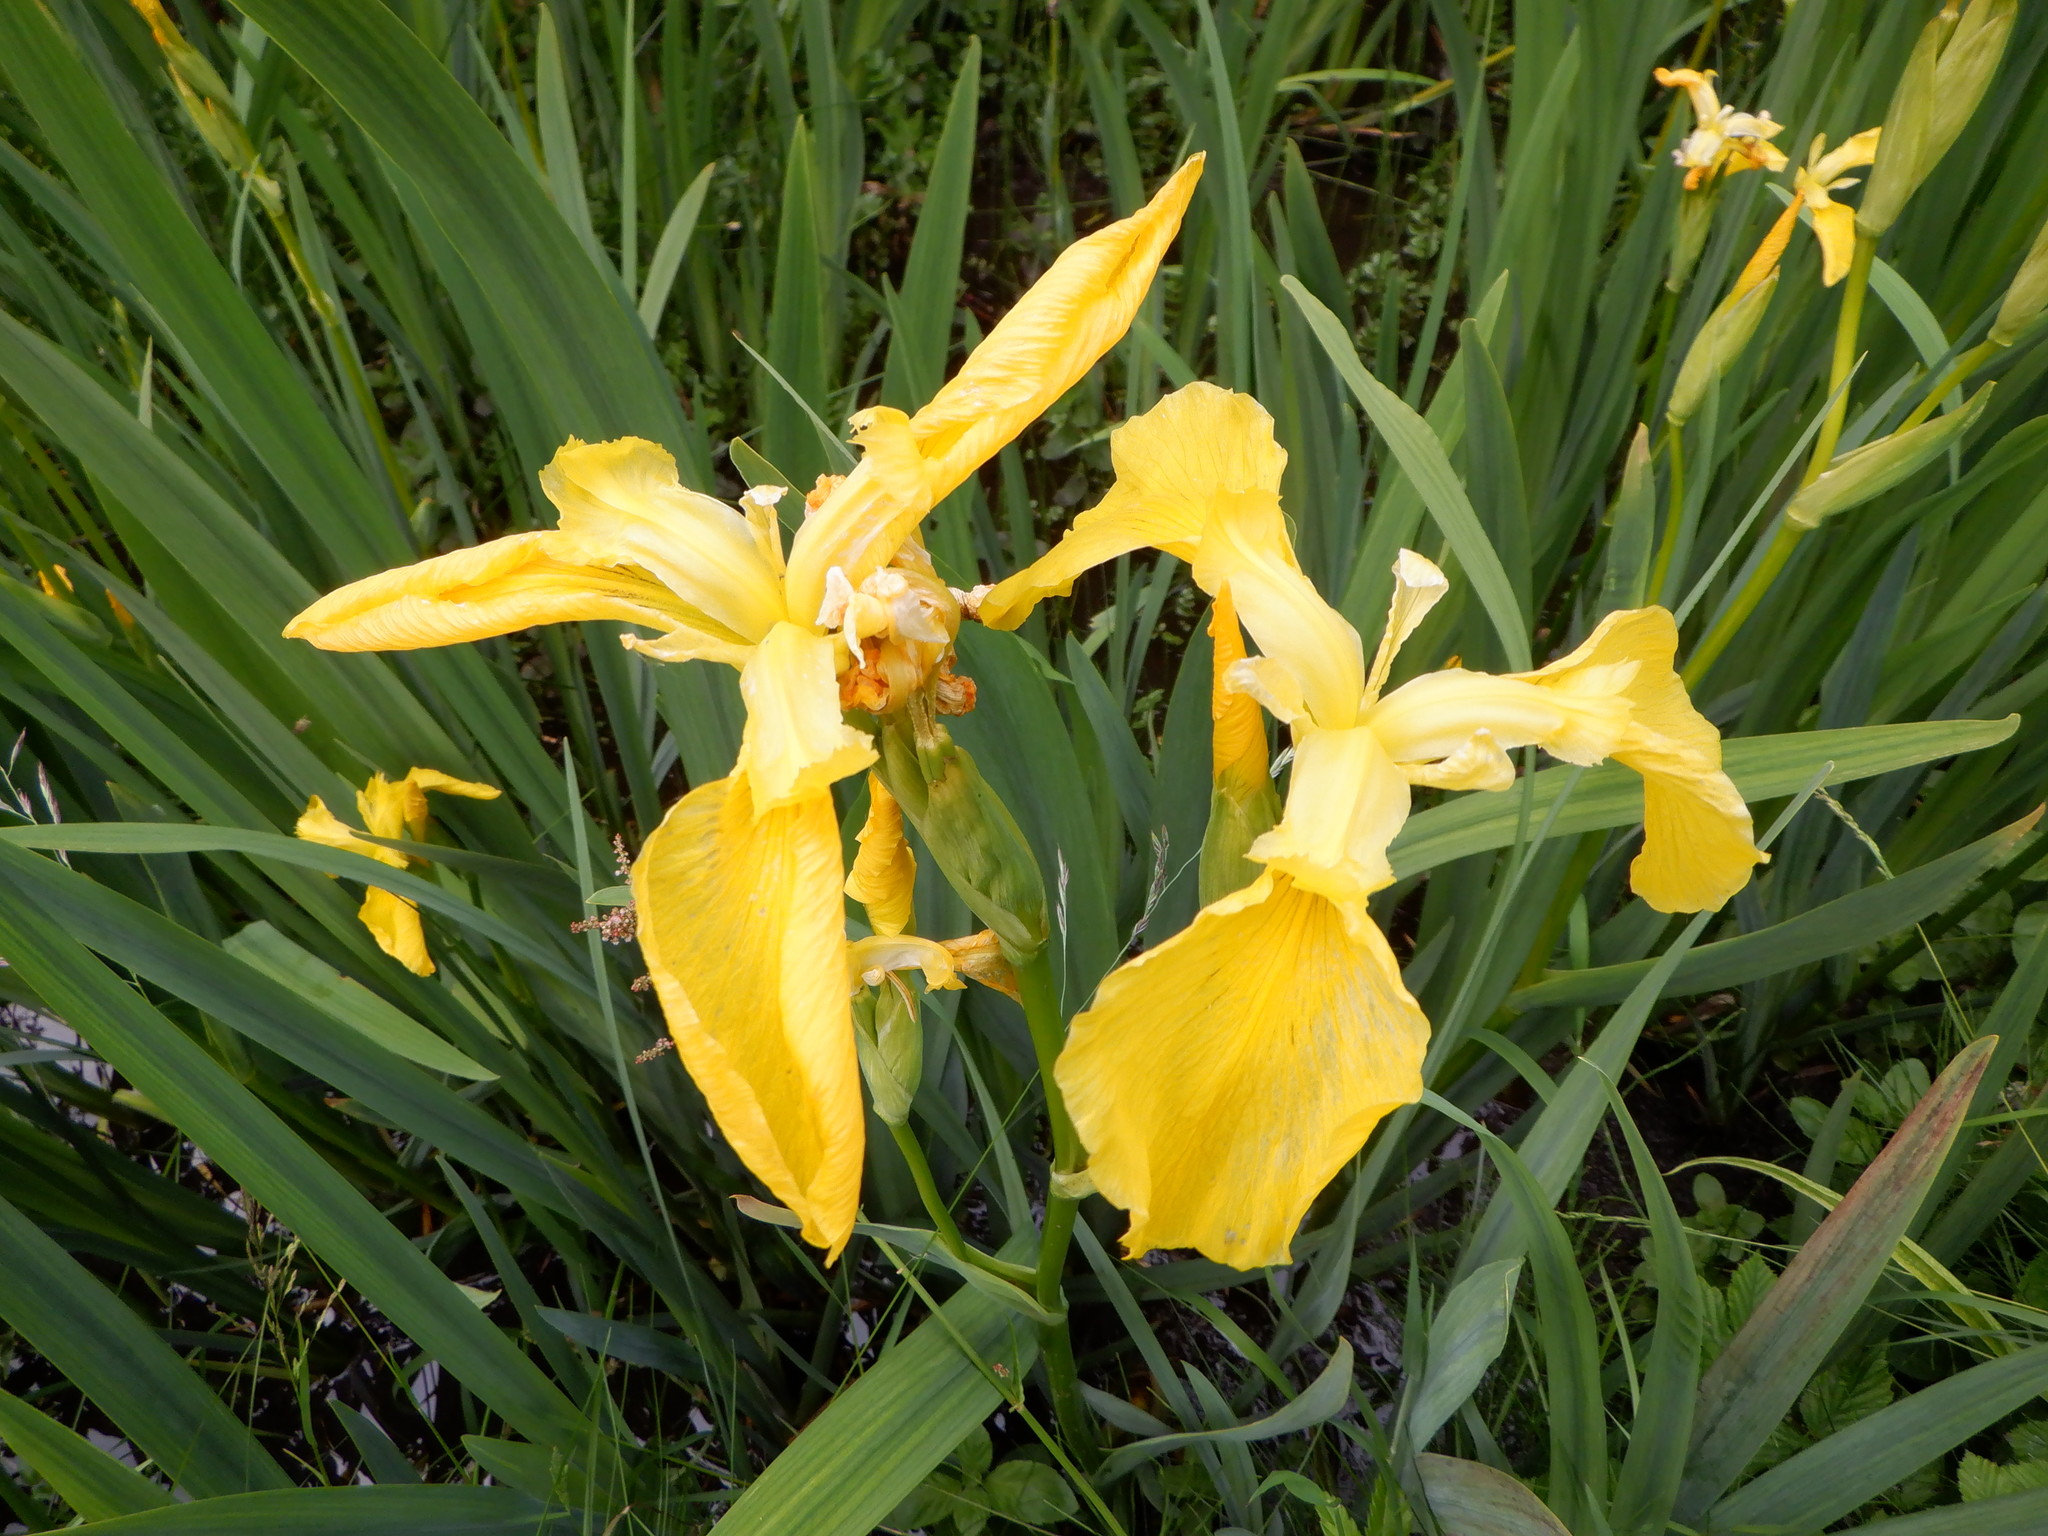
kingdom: Plantae
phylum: Tracheophyta
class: Liliopsida
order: Asparagales
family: Iridaceae
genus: Iris
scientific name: Iris pseudacorus
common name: Yellow flag
